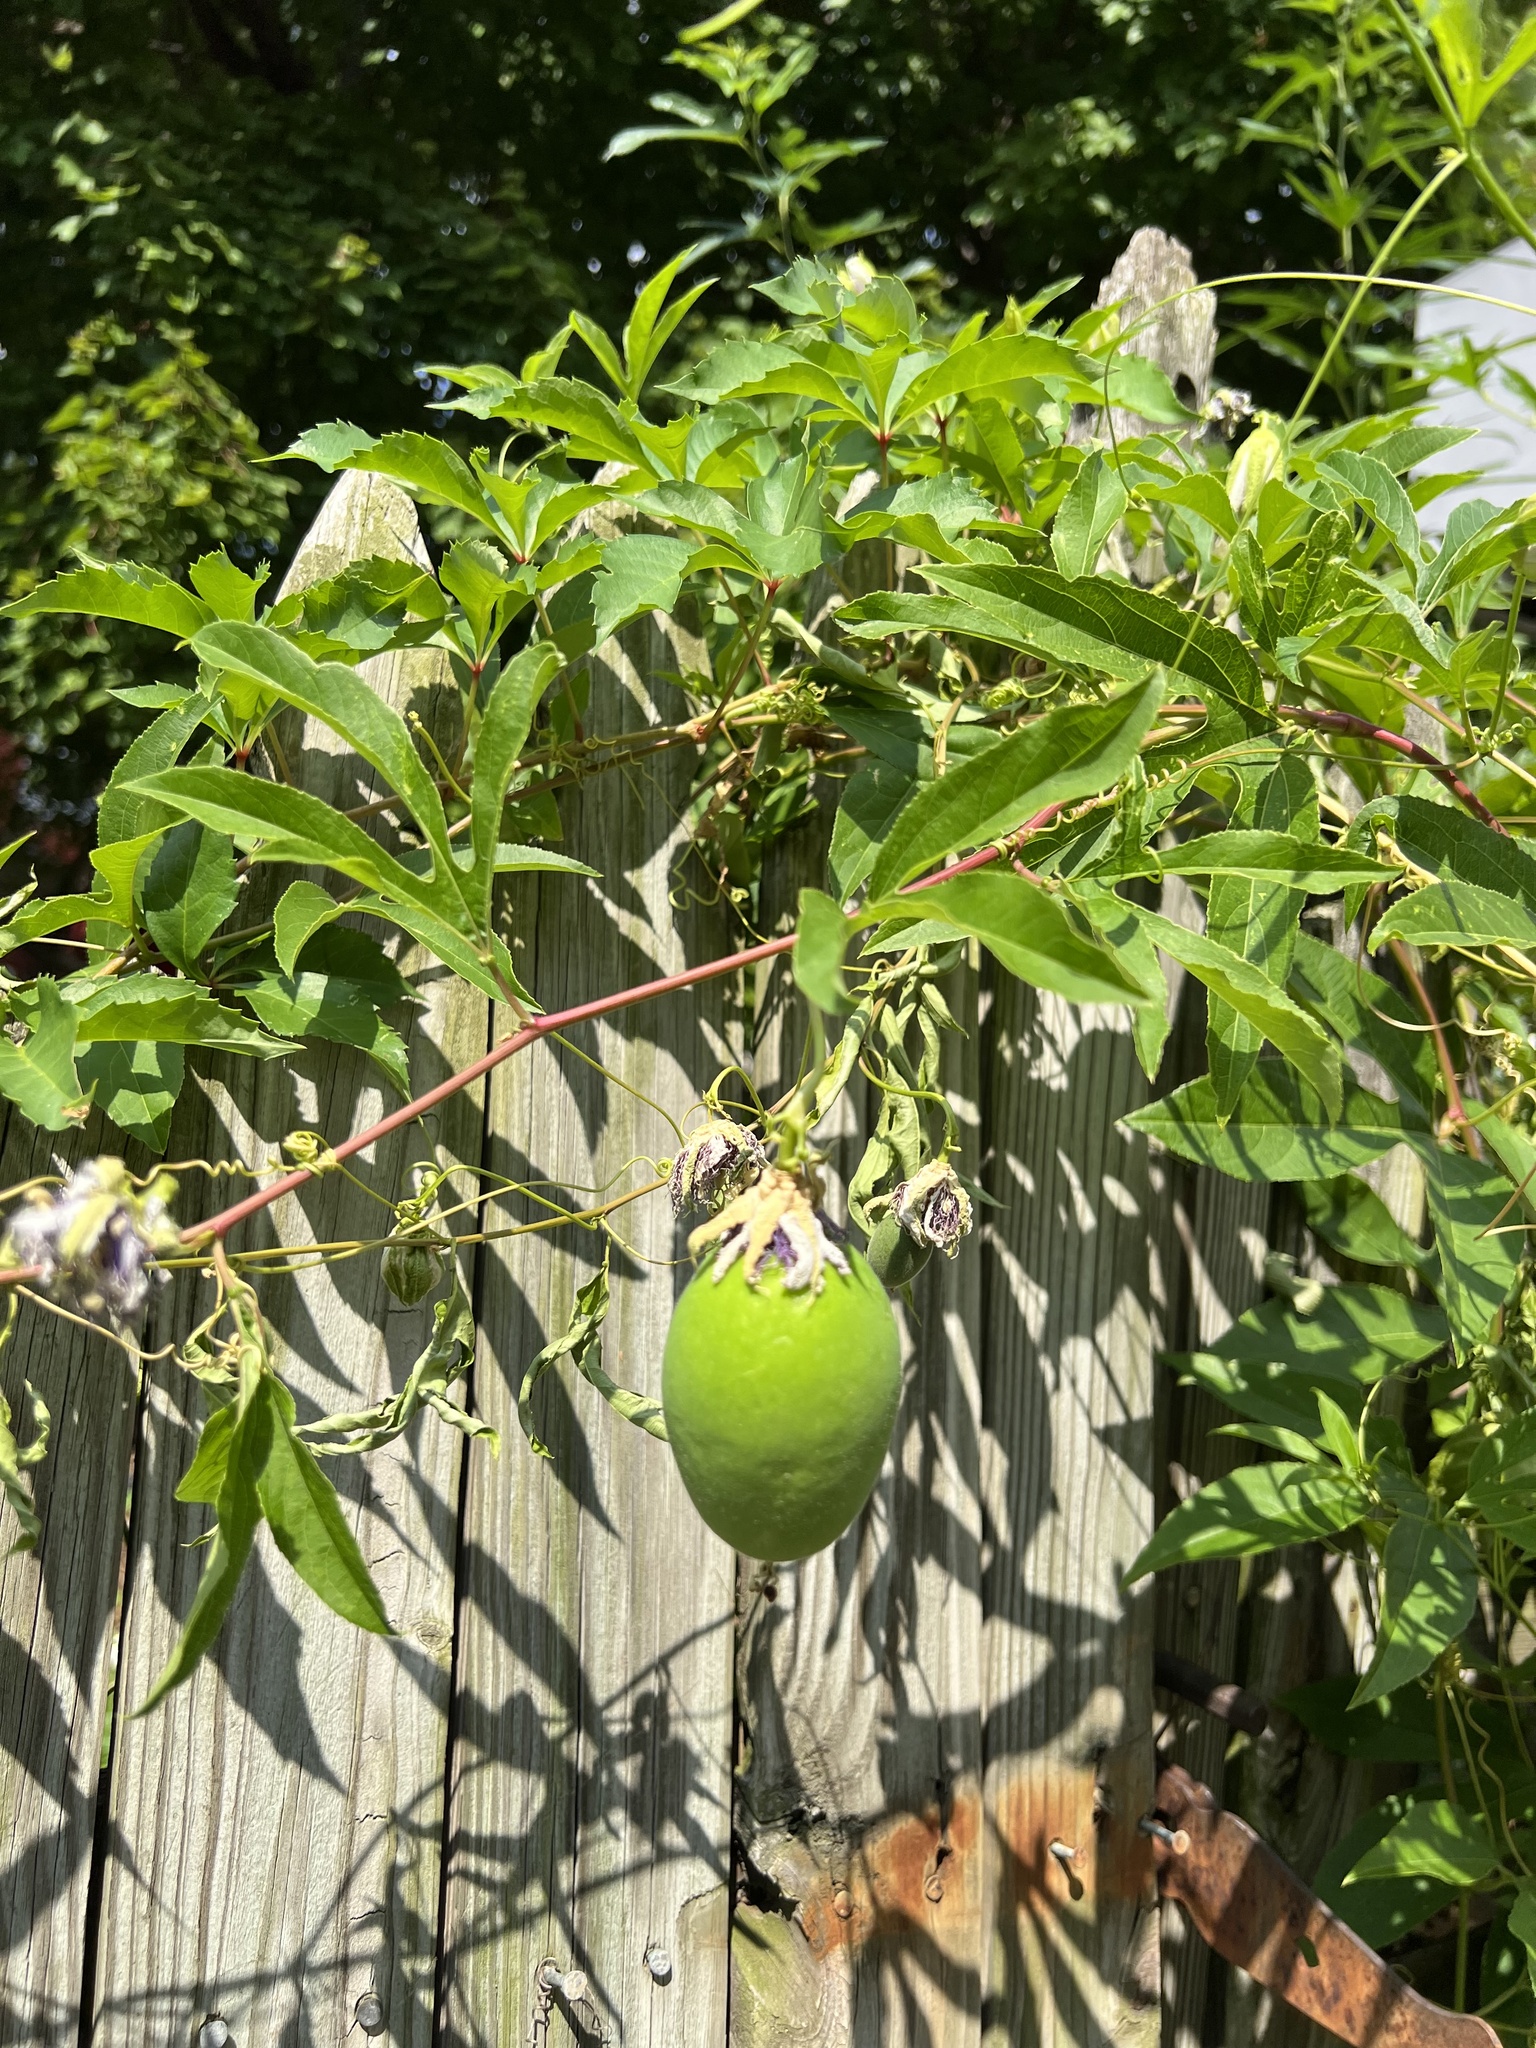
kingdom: Plantae
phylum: Tracheophyta
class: Magnoliopsida
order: Malpighiales
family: Passifloraceae
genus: Passiflora
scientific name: Passiflora incarnata
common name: Apricot-vine
